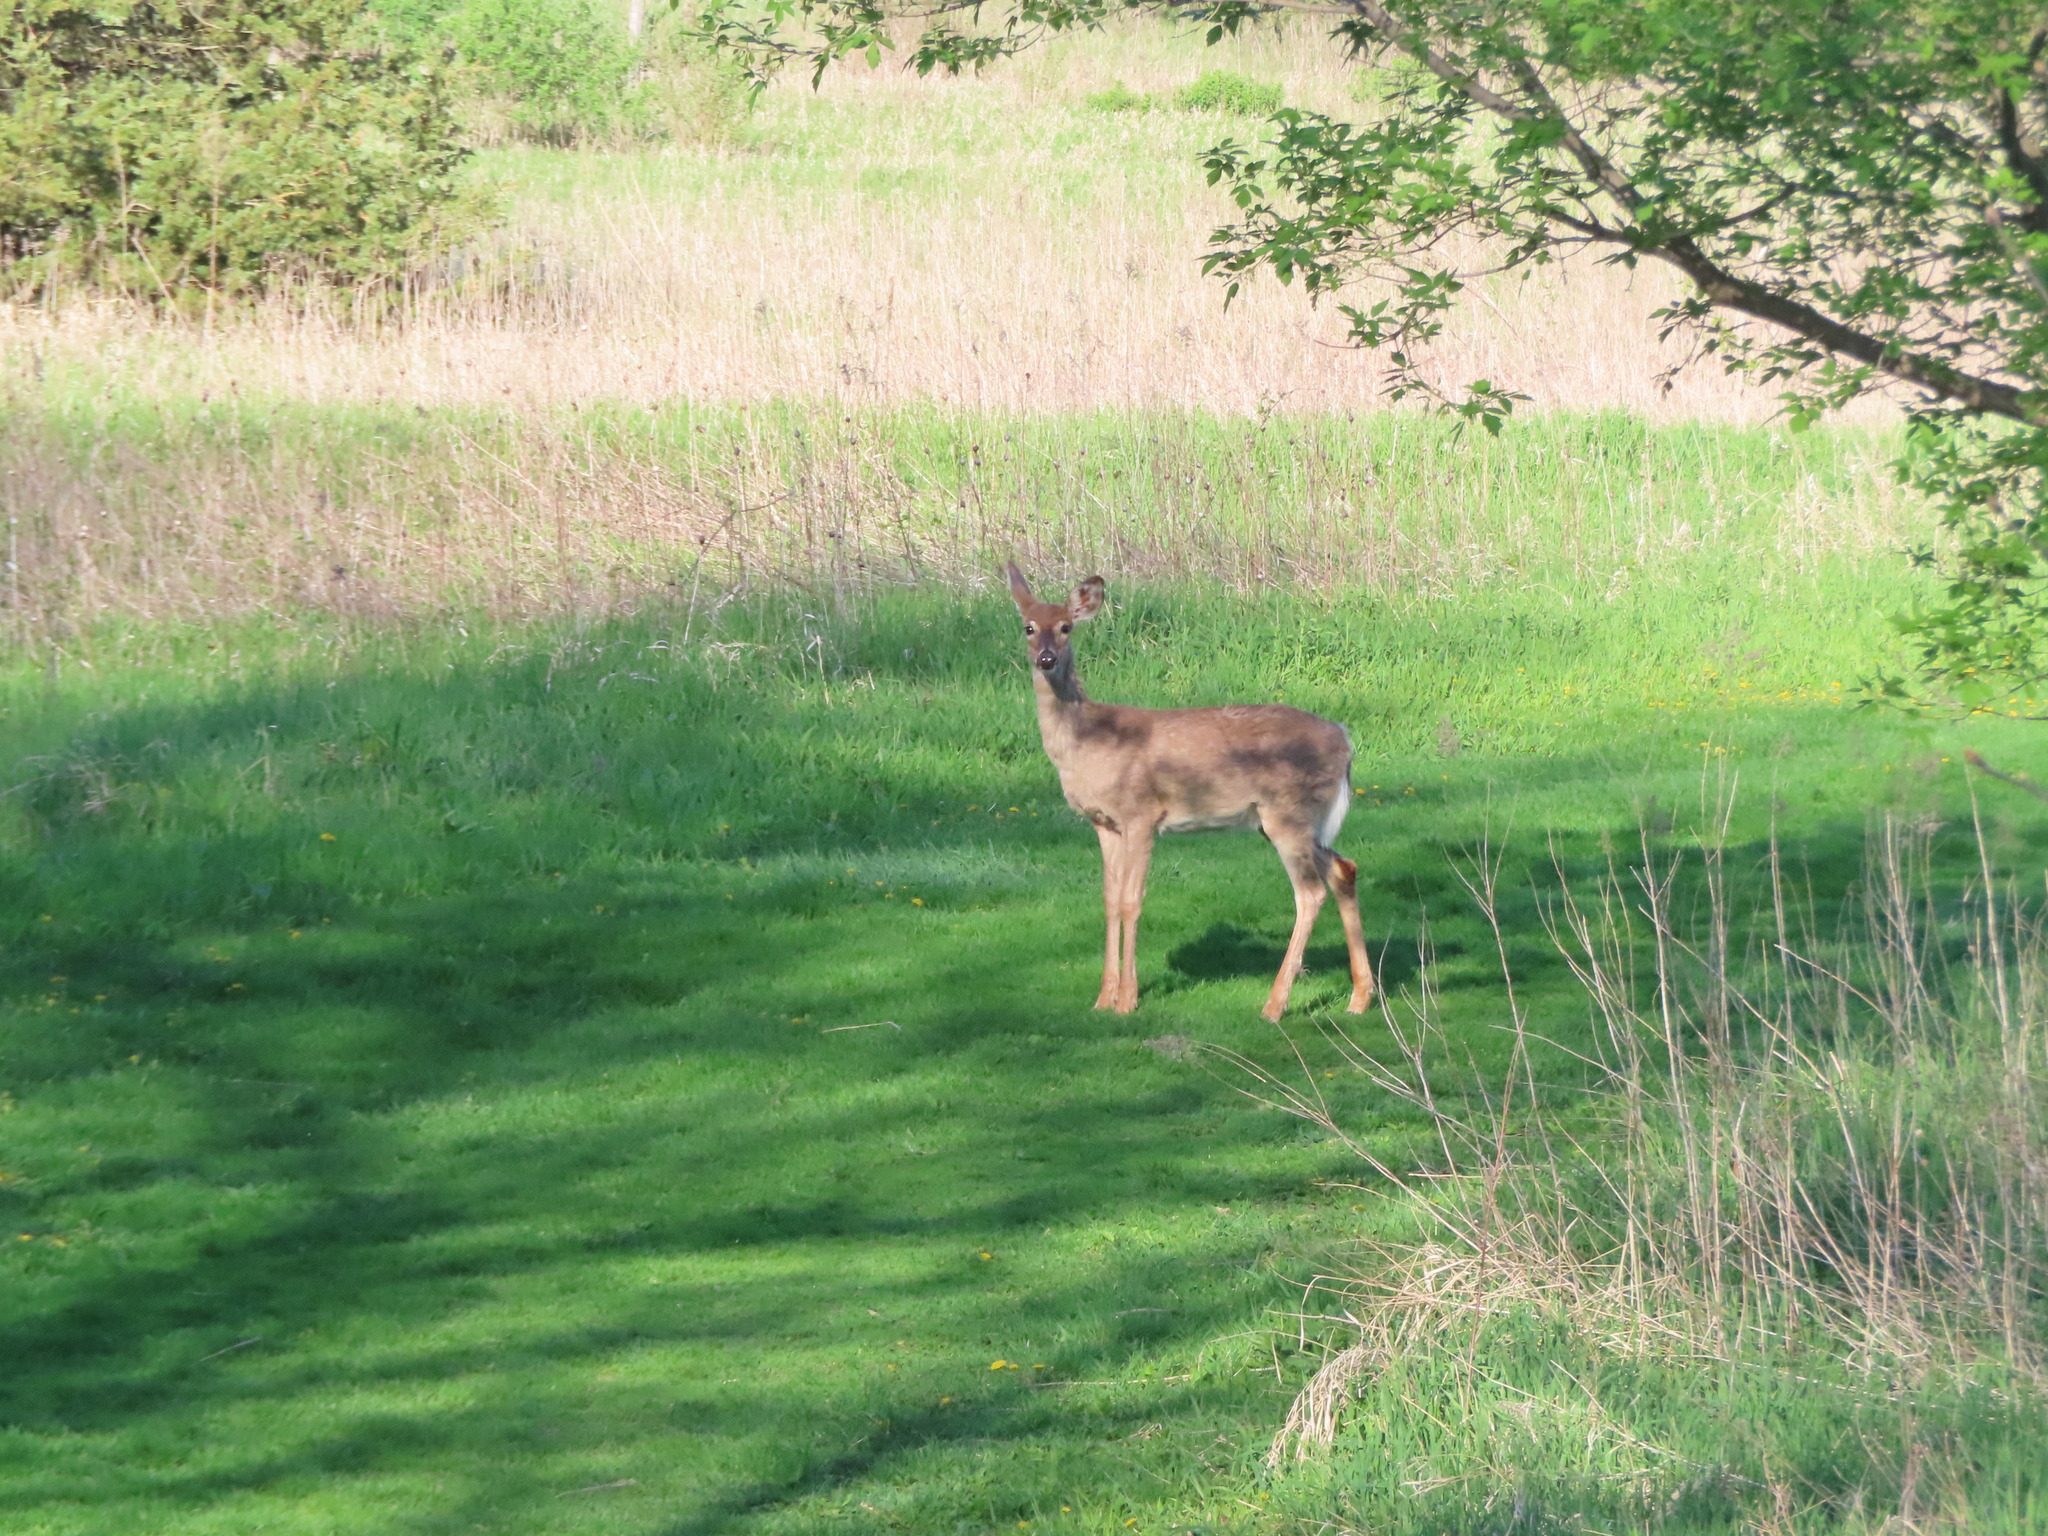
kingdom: Animalia
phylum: Chordata
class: Mammalia
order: Artiodactyla
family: Cervidae
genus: Odocoileus
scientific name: Odocoileus virginianus
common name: White-tailed deer
